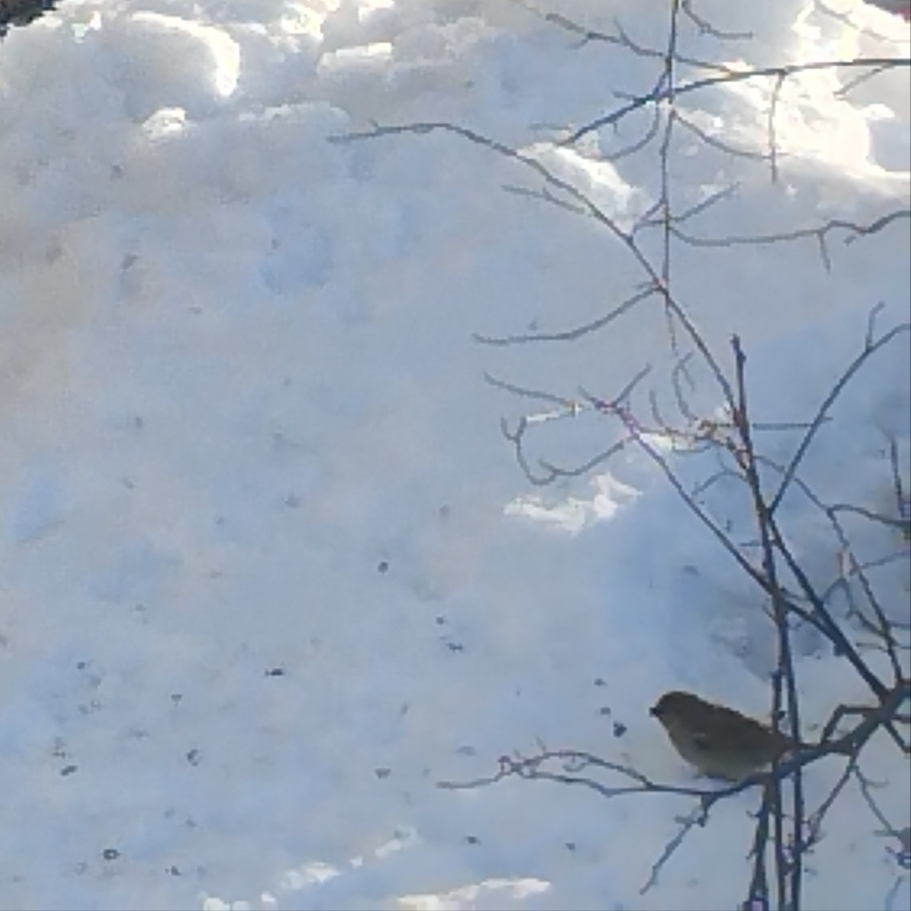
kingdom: Animalia
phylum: Chordata
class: Aves
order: Passeriformes
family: Passeridae
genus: Passer
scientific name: Passer domesticus
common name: House sparrow
